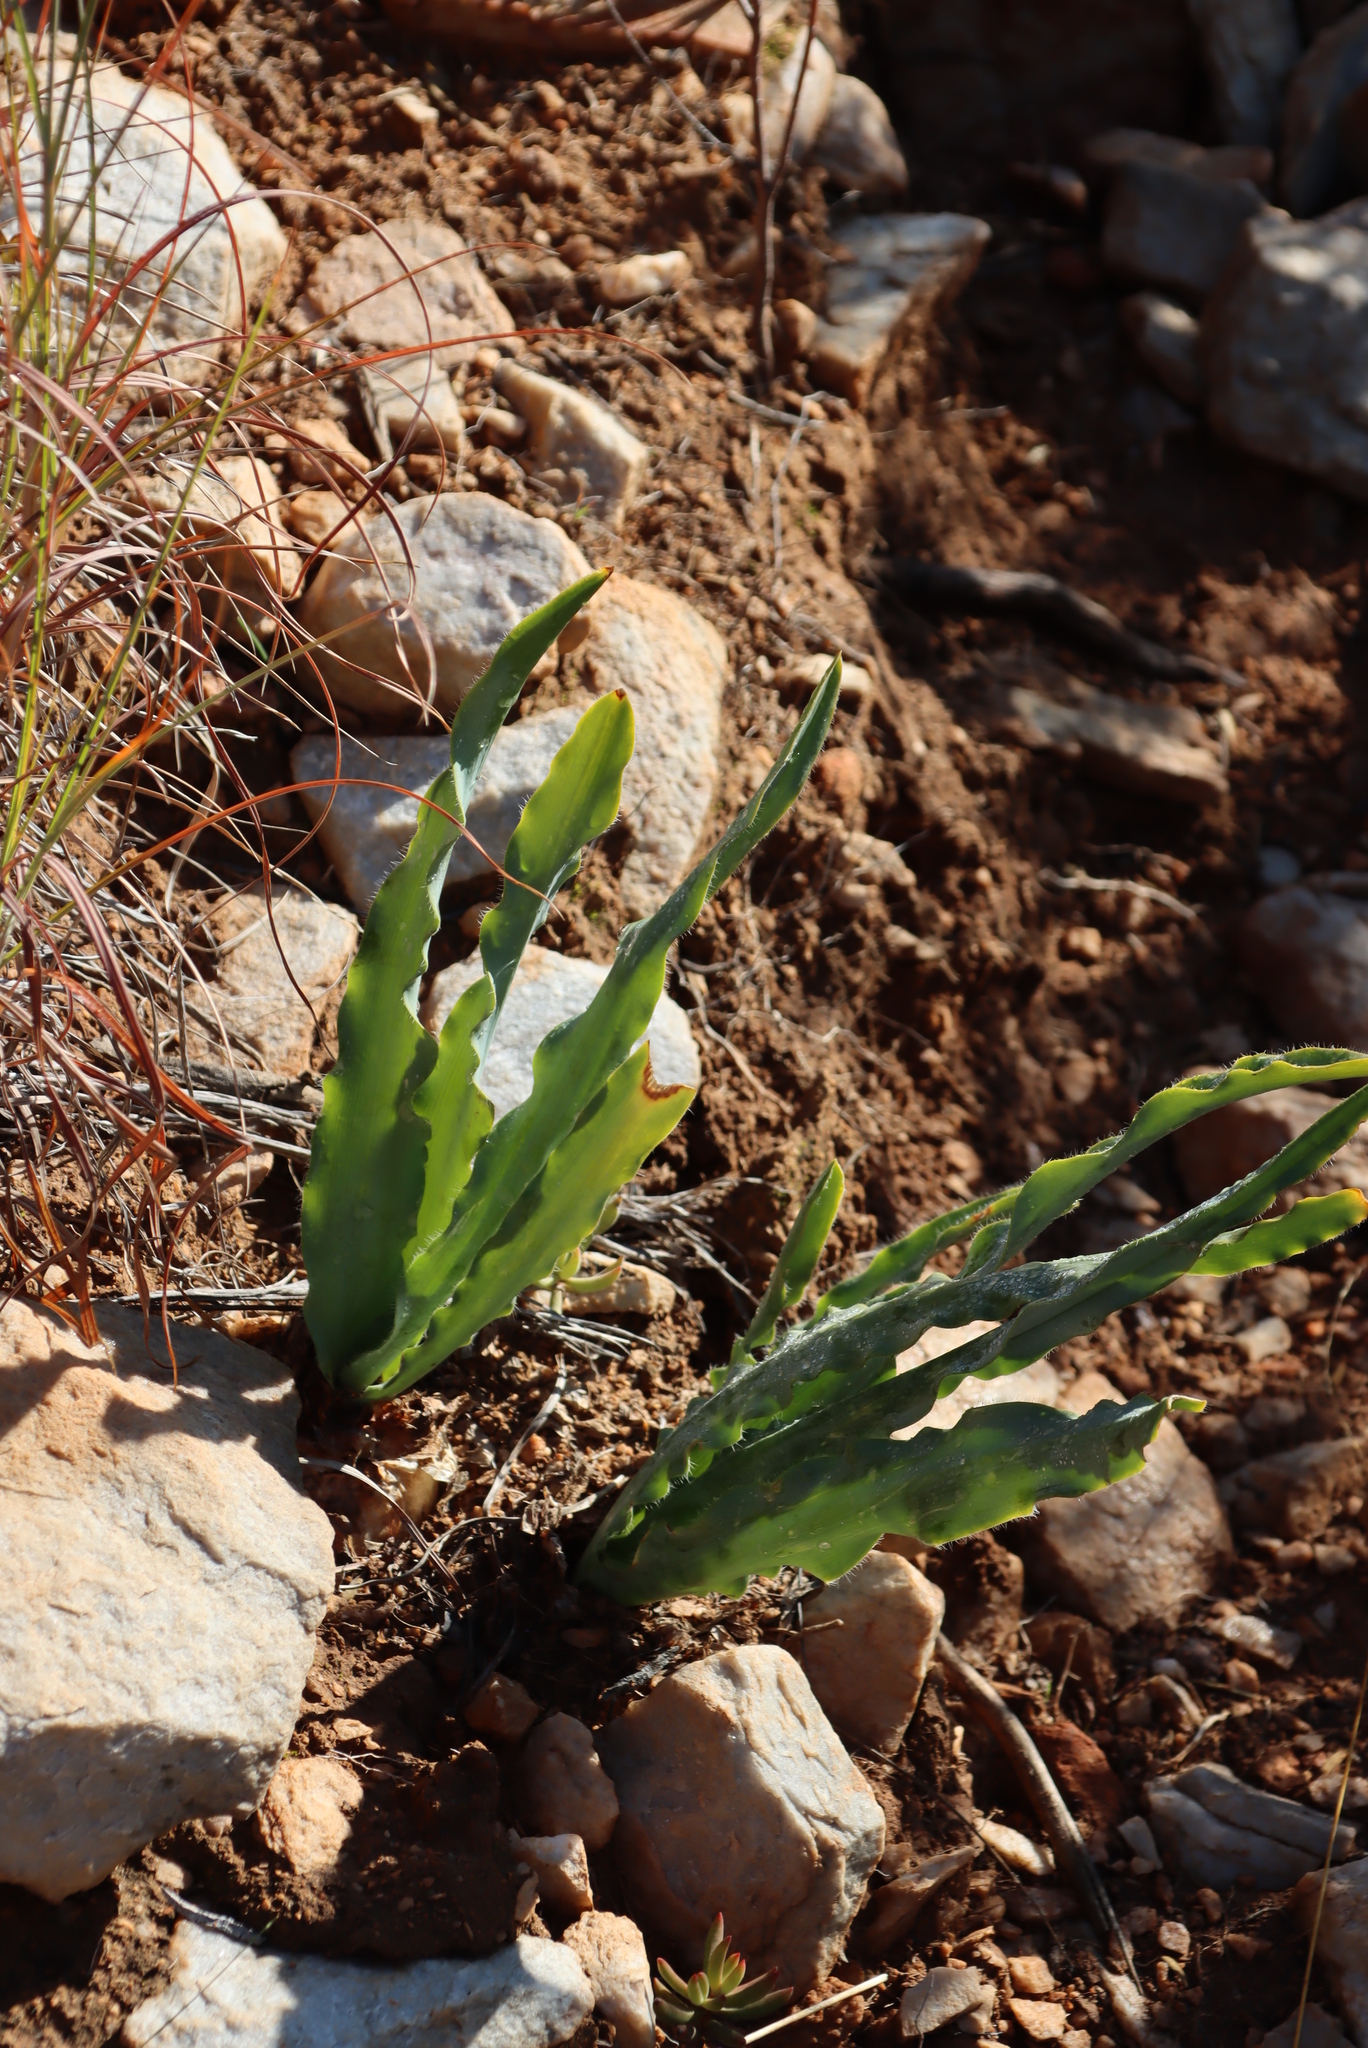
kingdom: Plantae
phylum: Tracheophyta
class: Liliopsida
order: Asparagales
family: Asparagaceae
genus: Drimia
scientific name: Drimia elata
